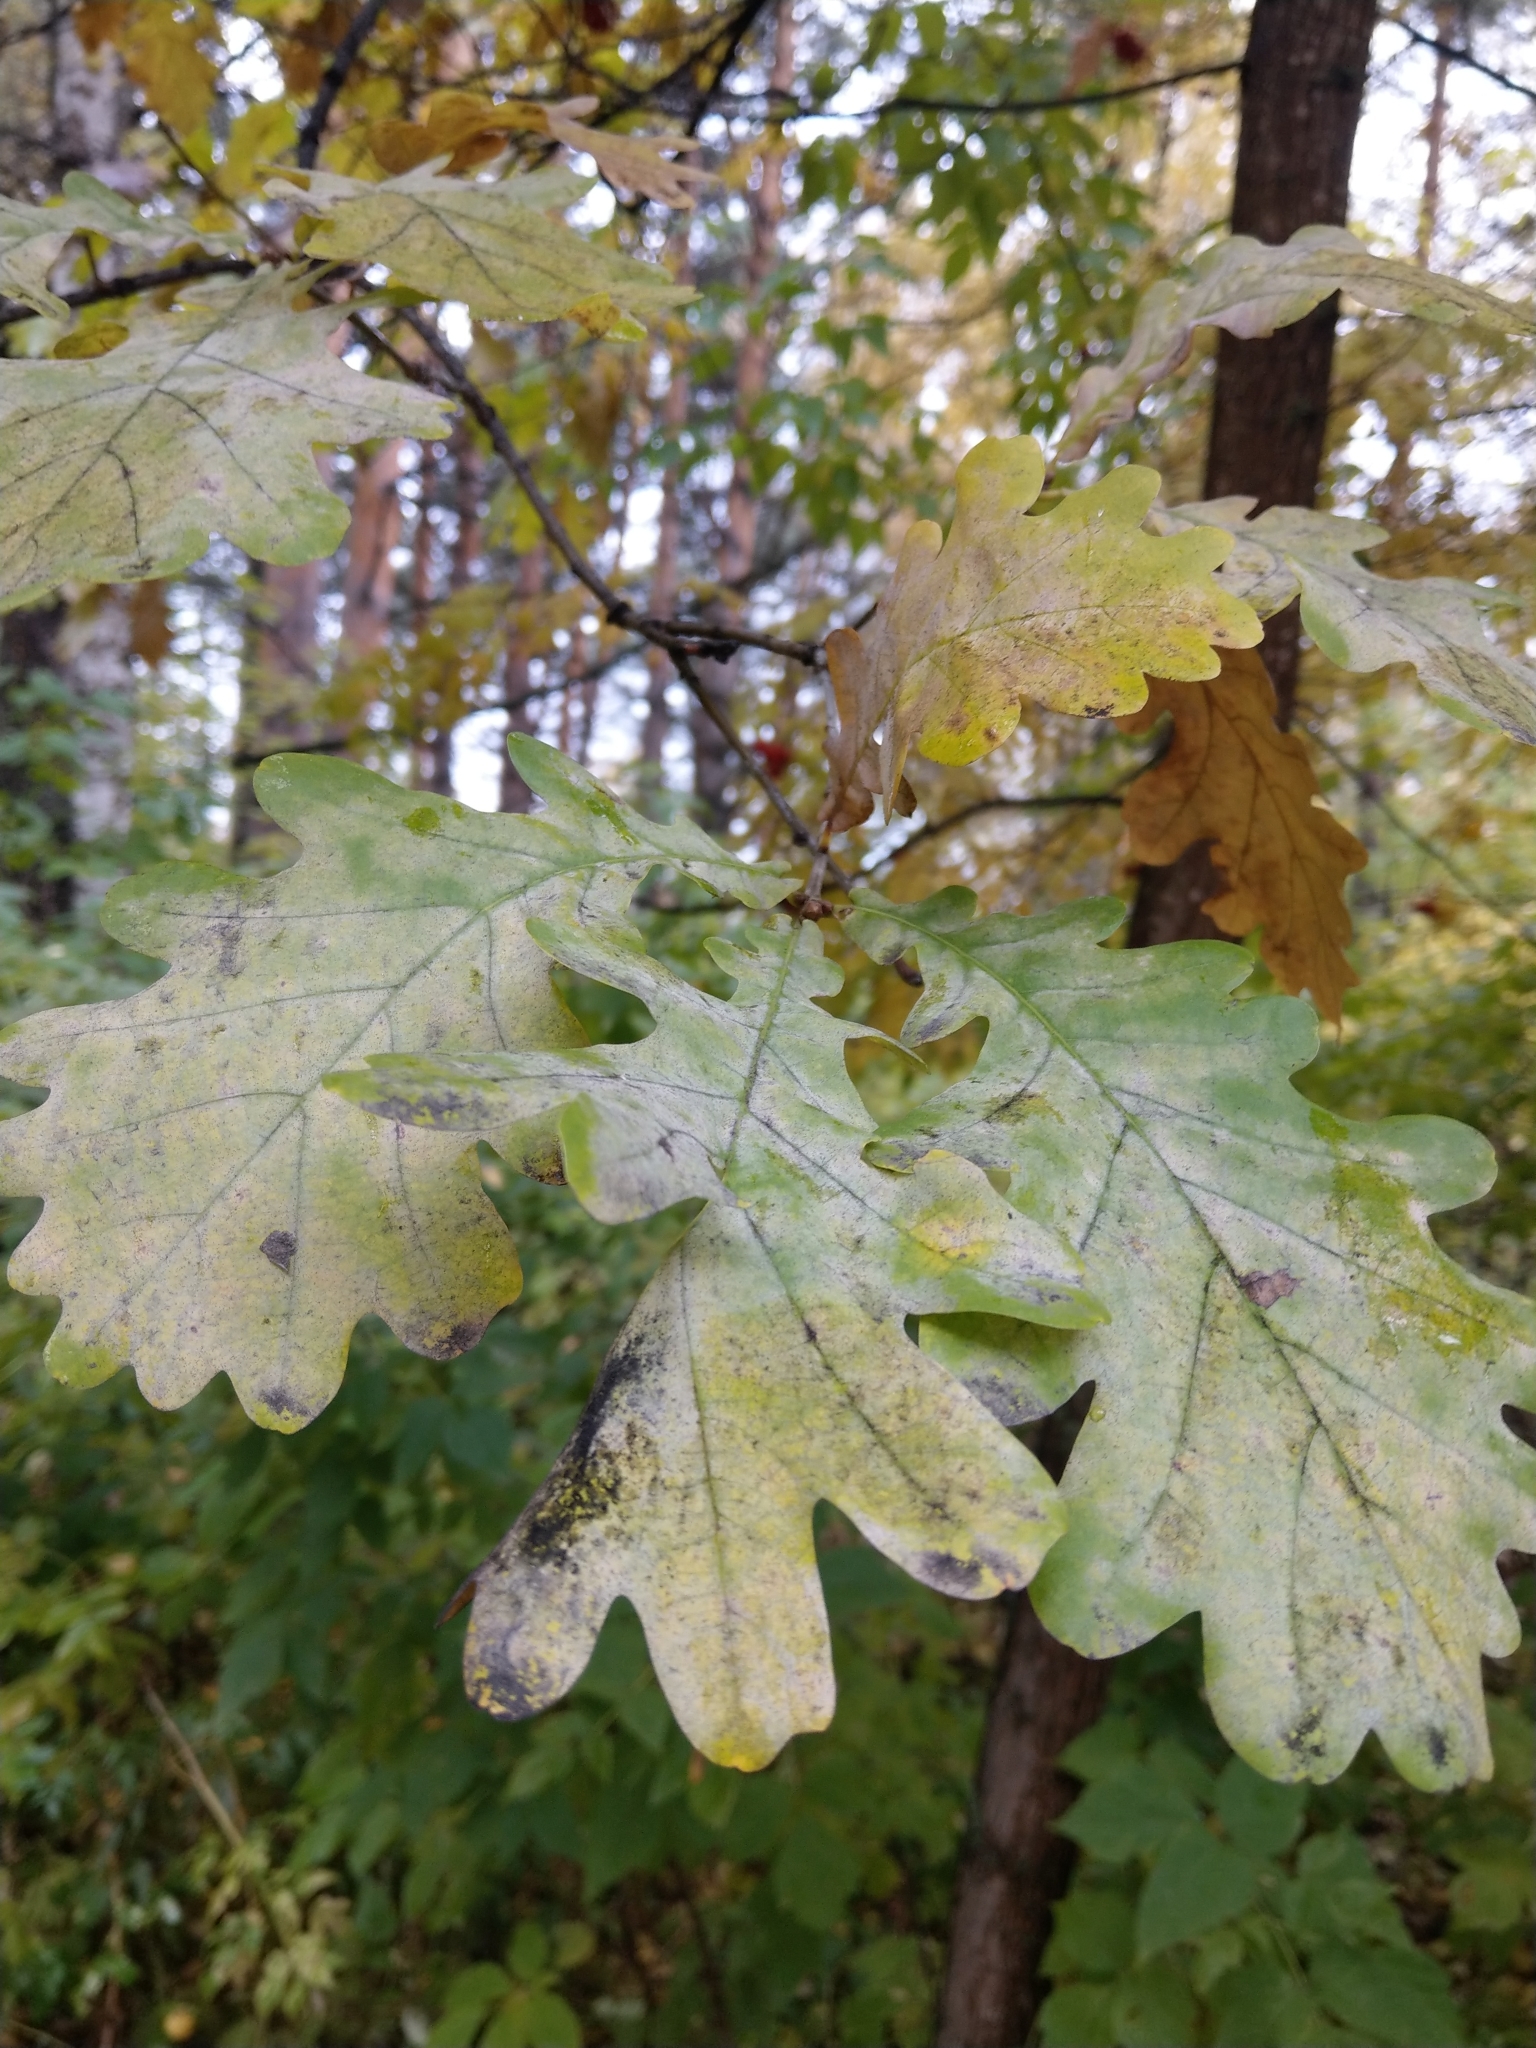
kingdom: Plantae
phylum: Tracheophyta
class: Magnoliopsida
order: Fagales
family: Fagaceae
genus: Quercus
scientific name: Quercus robur
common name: Pedunculate oak
